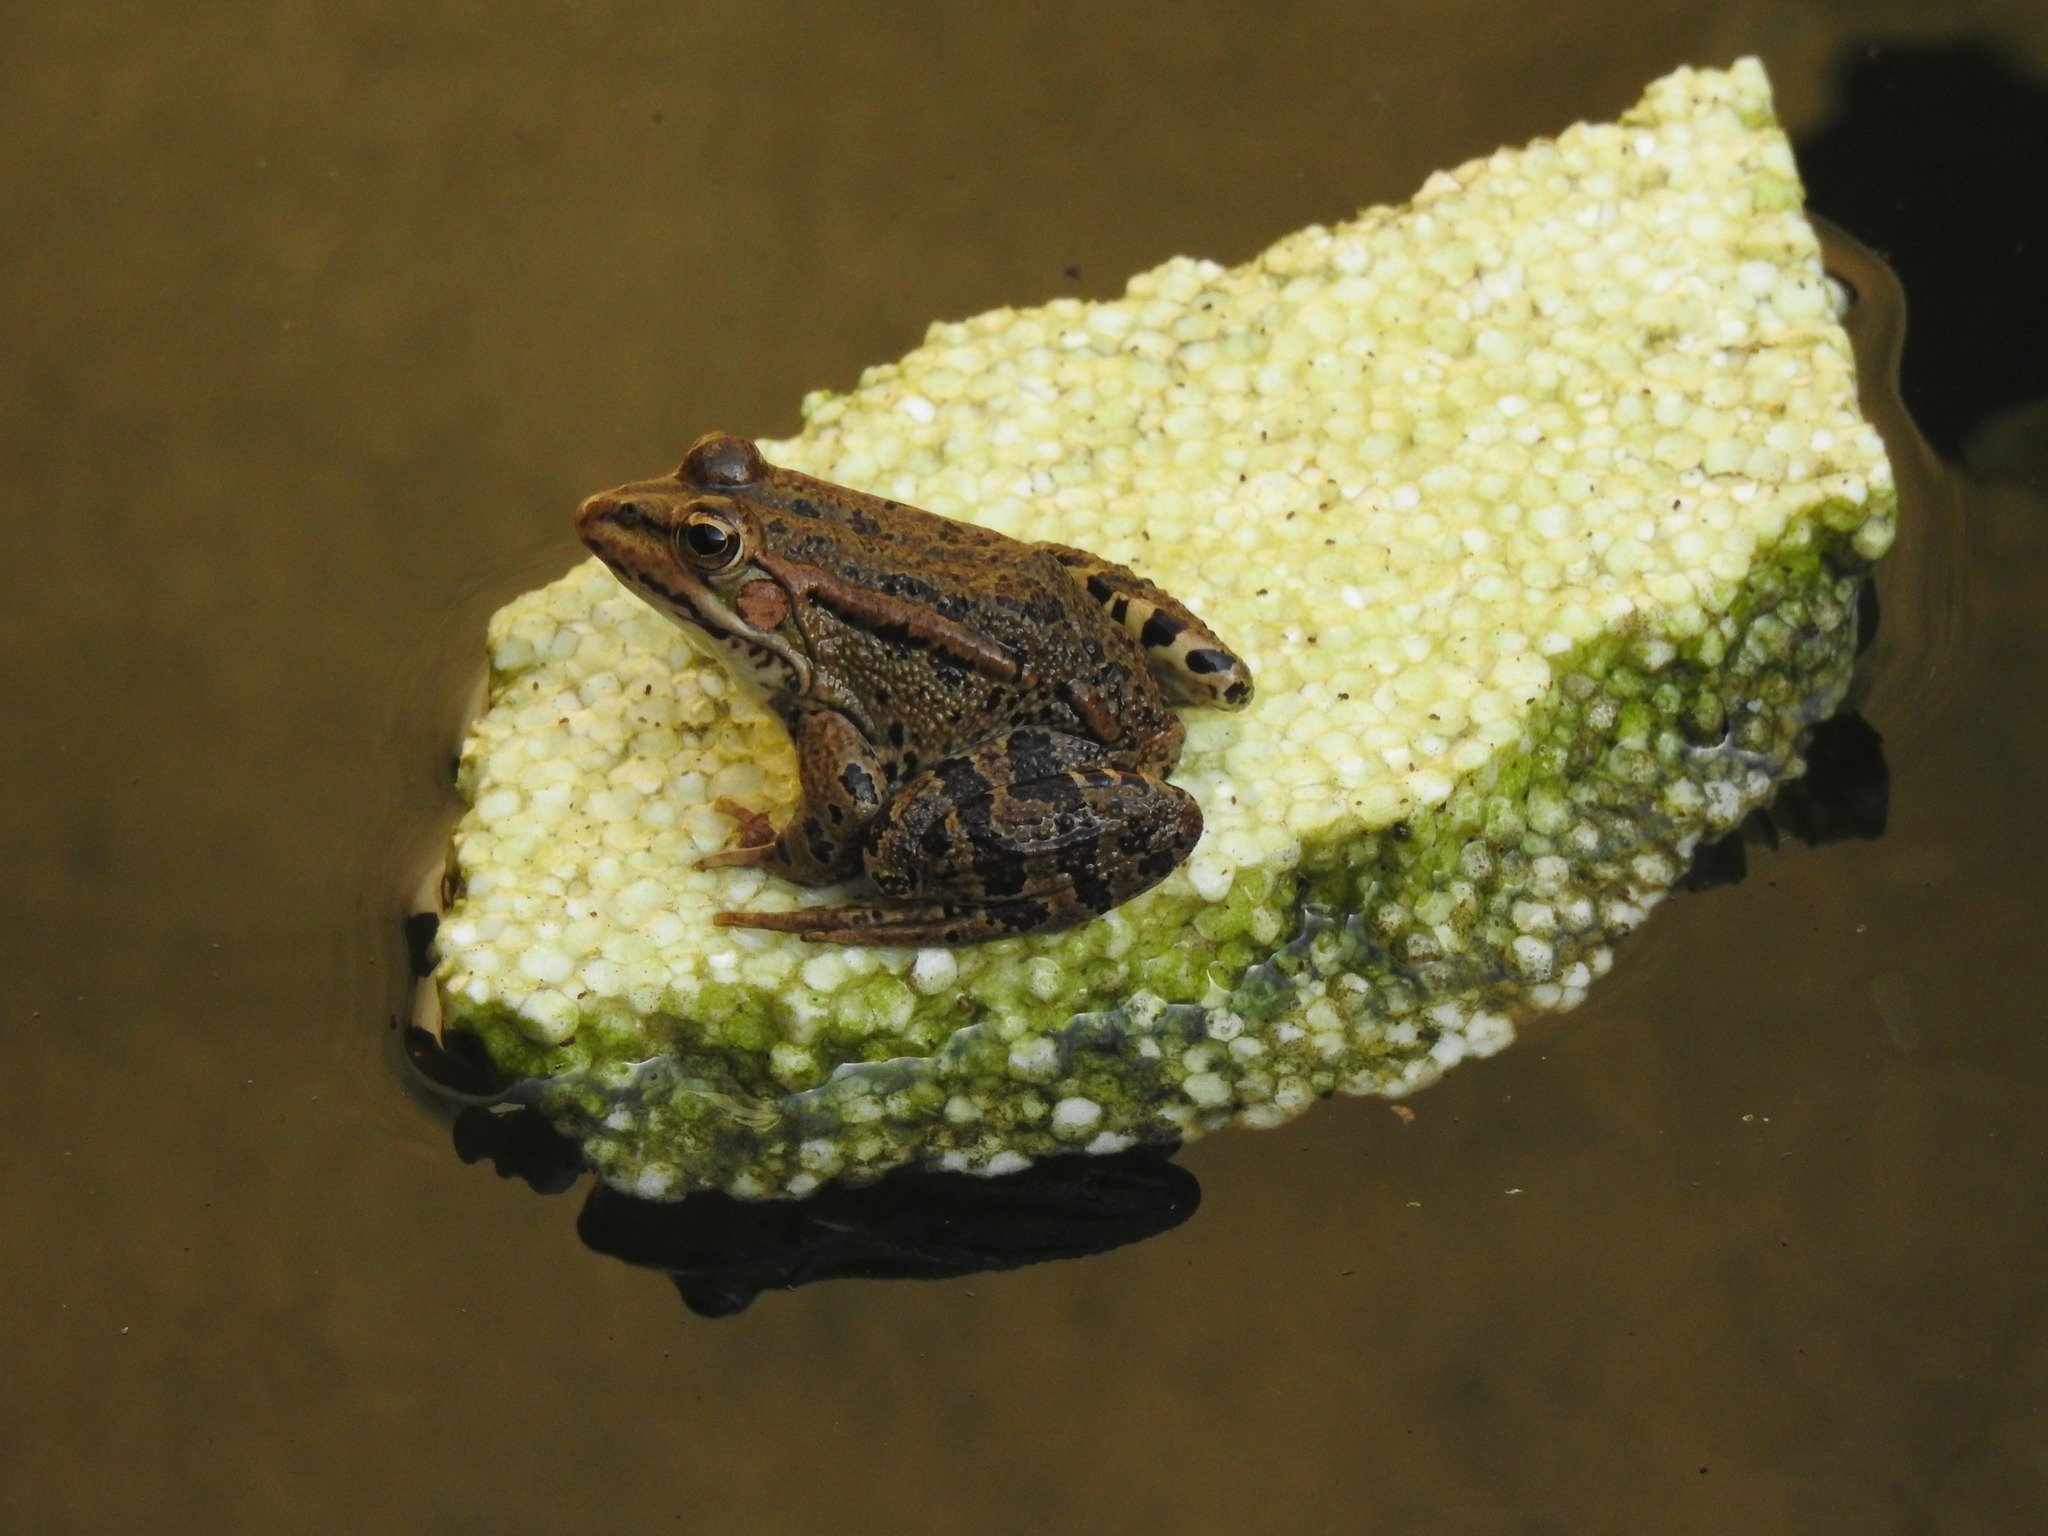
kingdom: Animalia
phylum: Chordata
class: Amphibia
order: Anura
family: Ranidae
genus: Pelophylax
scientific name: Pelophylax perezi
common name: Perez's frog
